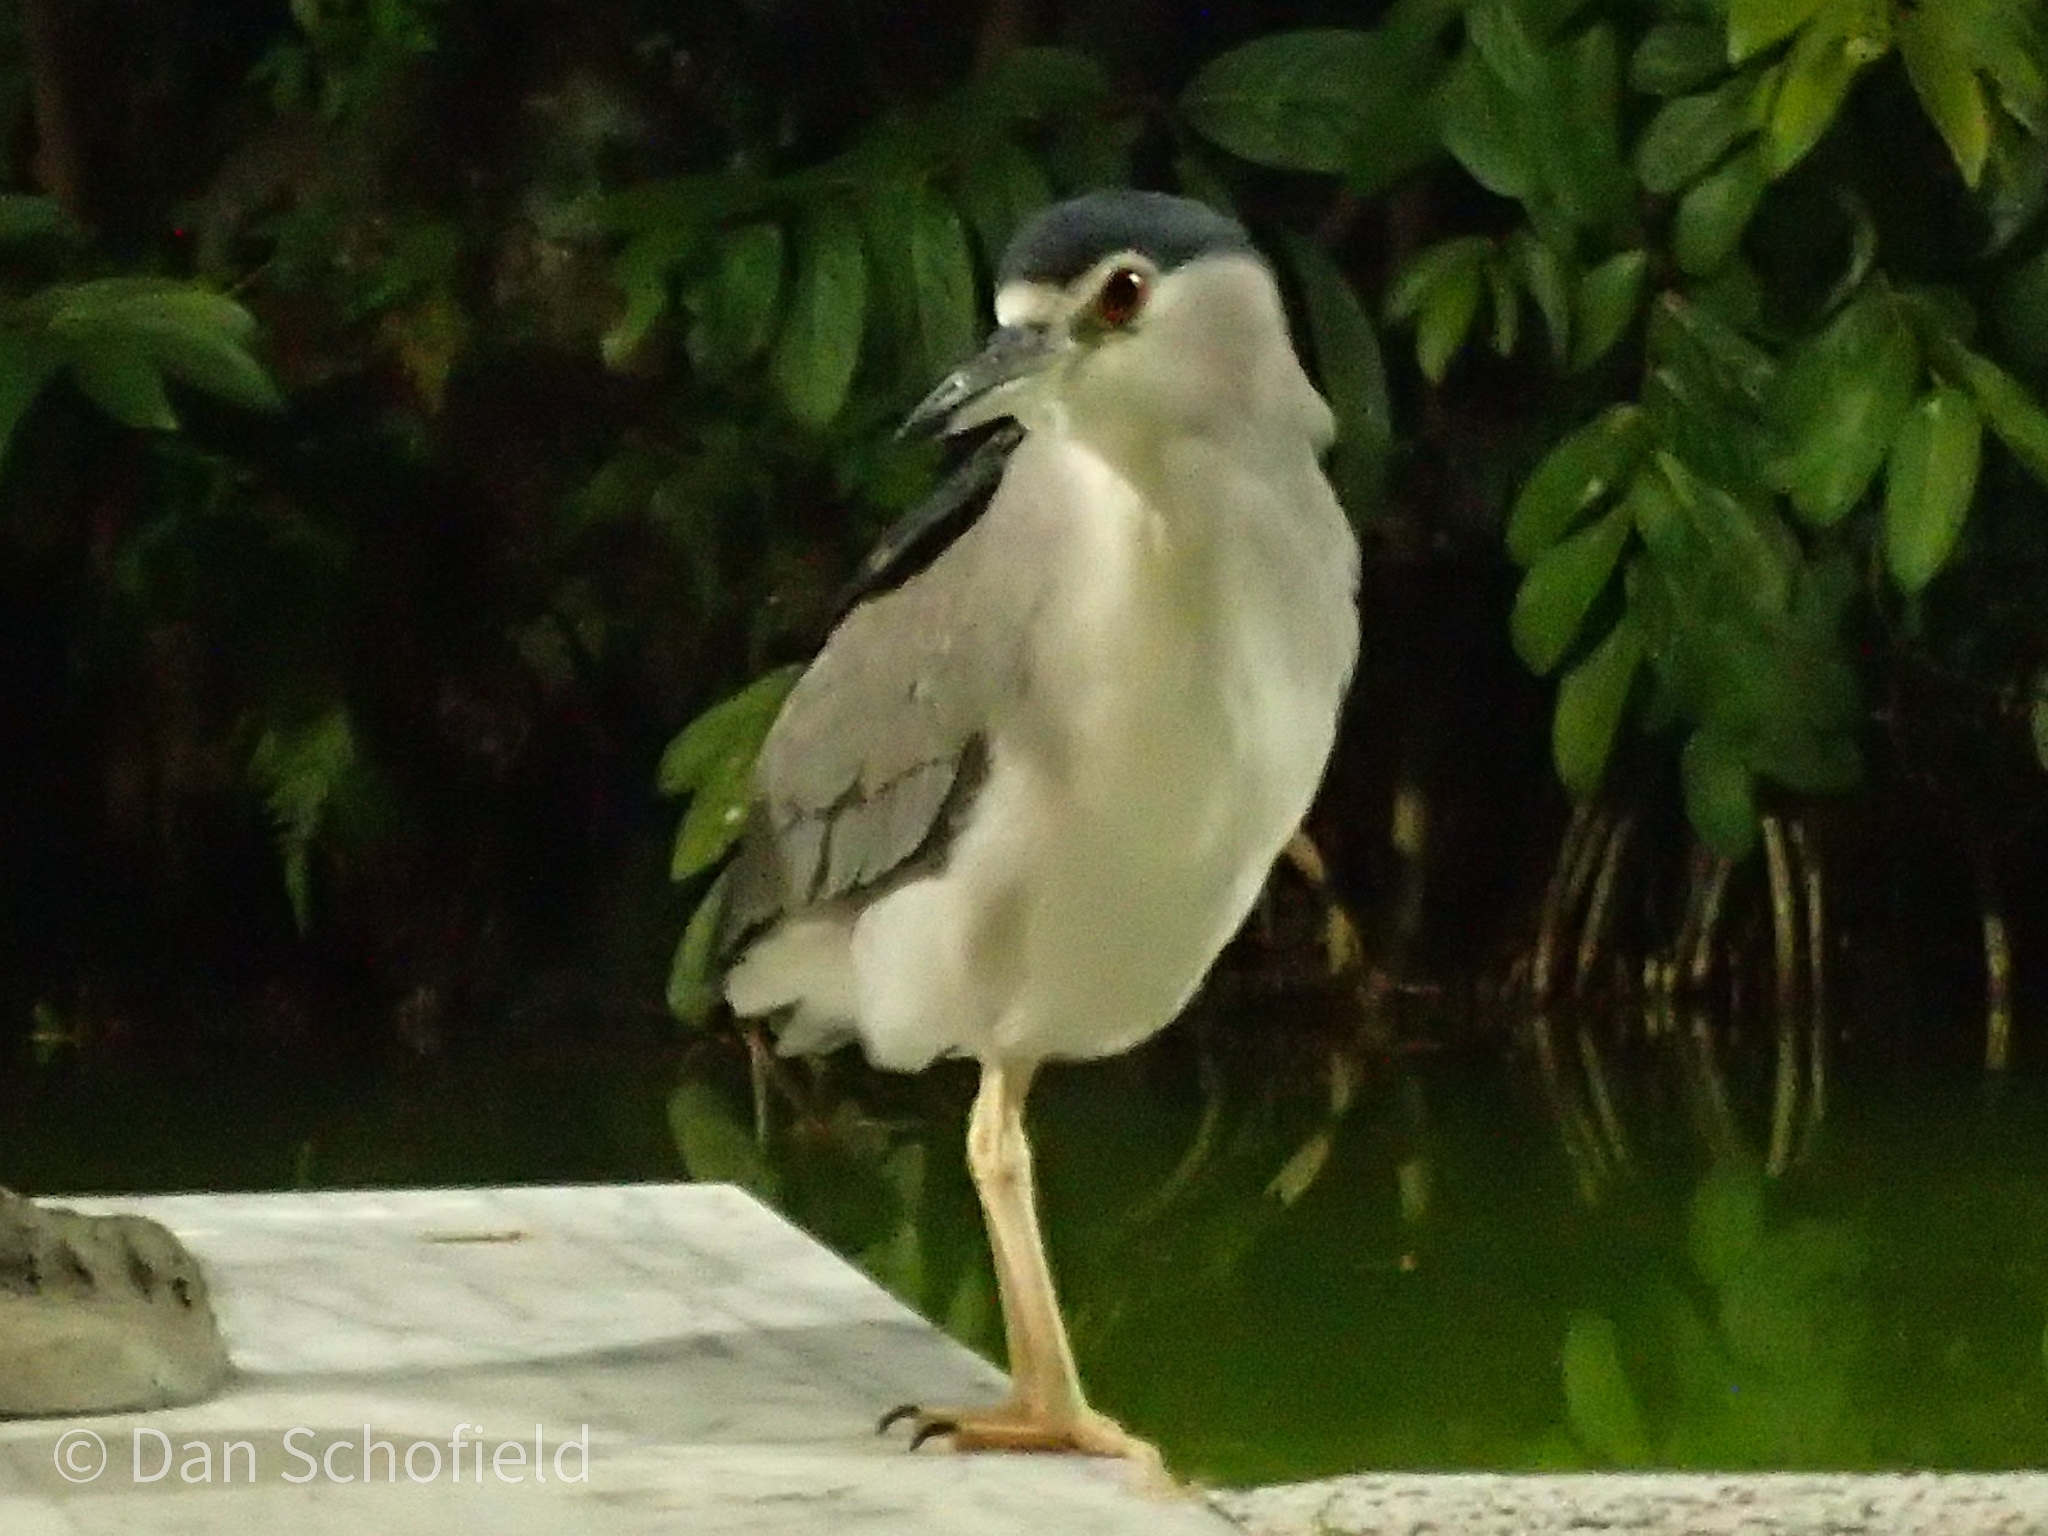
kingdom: Animalia
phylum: Chordata
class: Aves
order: Pelecaniformes
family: Ardeidae
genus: Nycticorax
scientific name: Nycticorax nycticorax
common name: Black-crowned night heron
